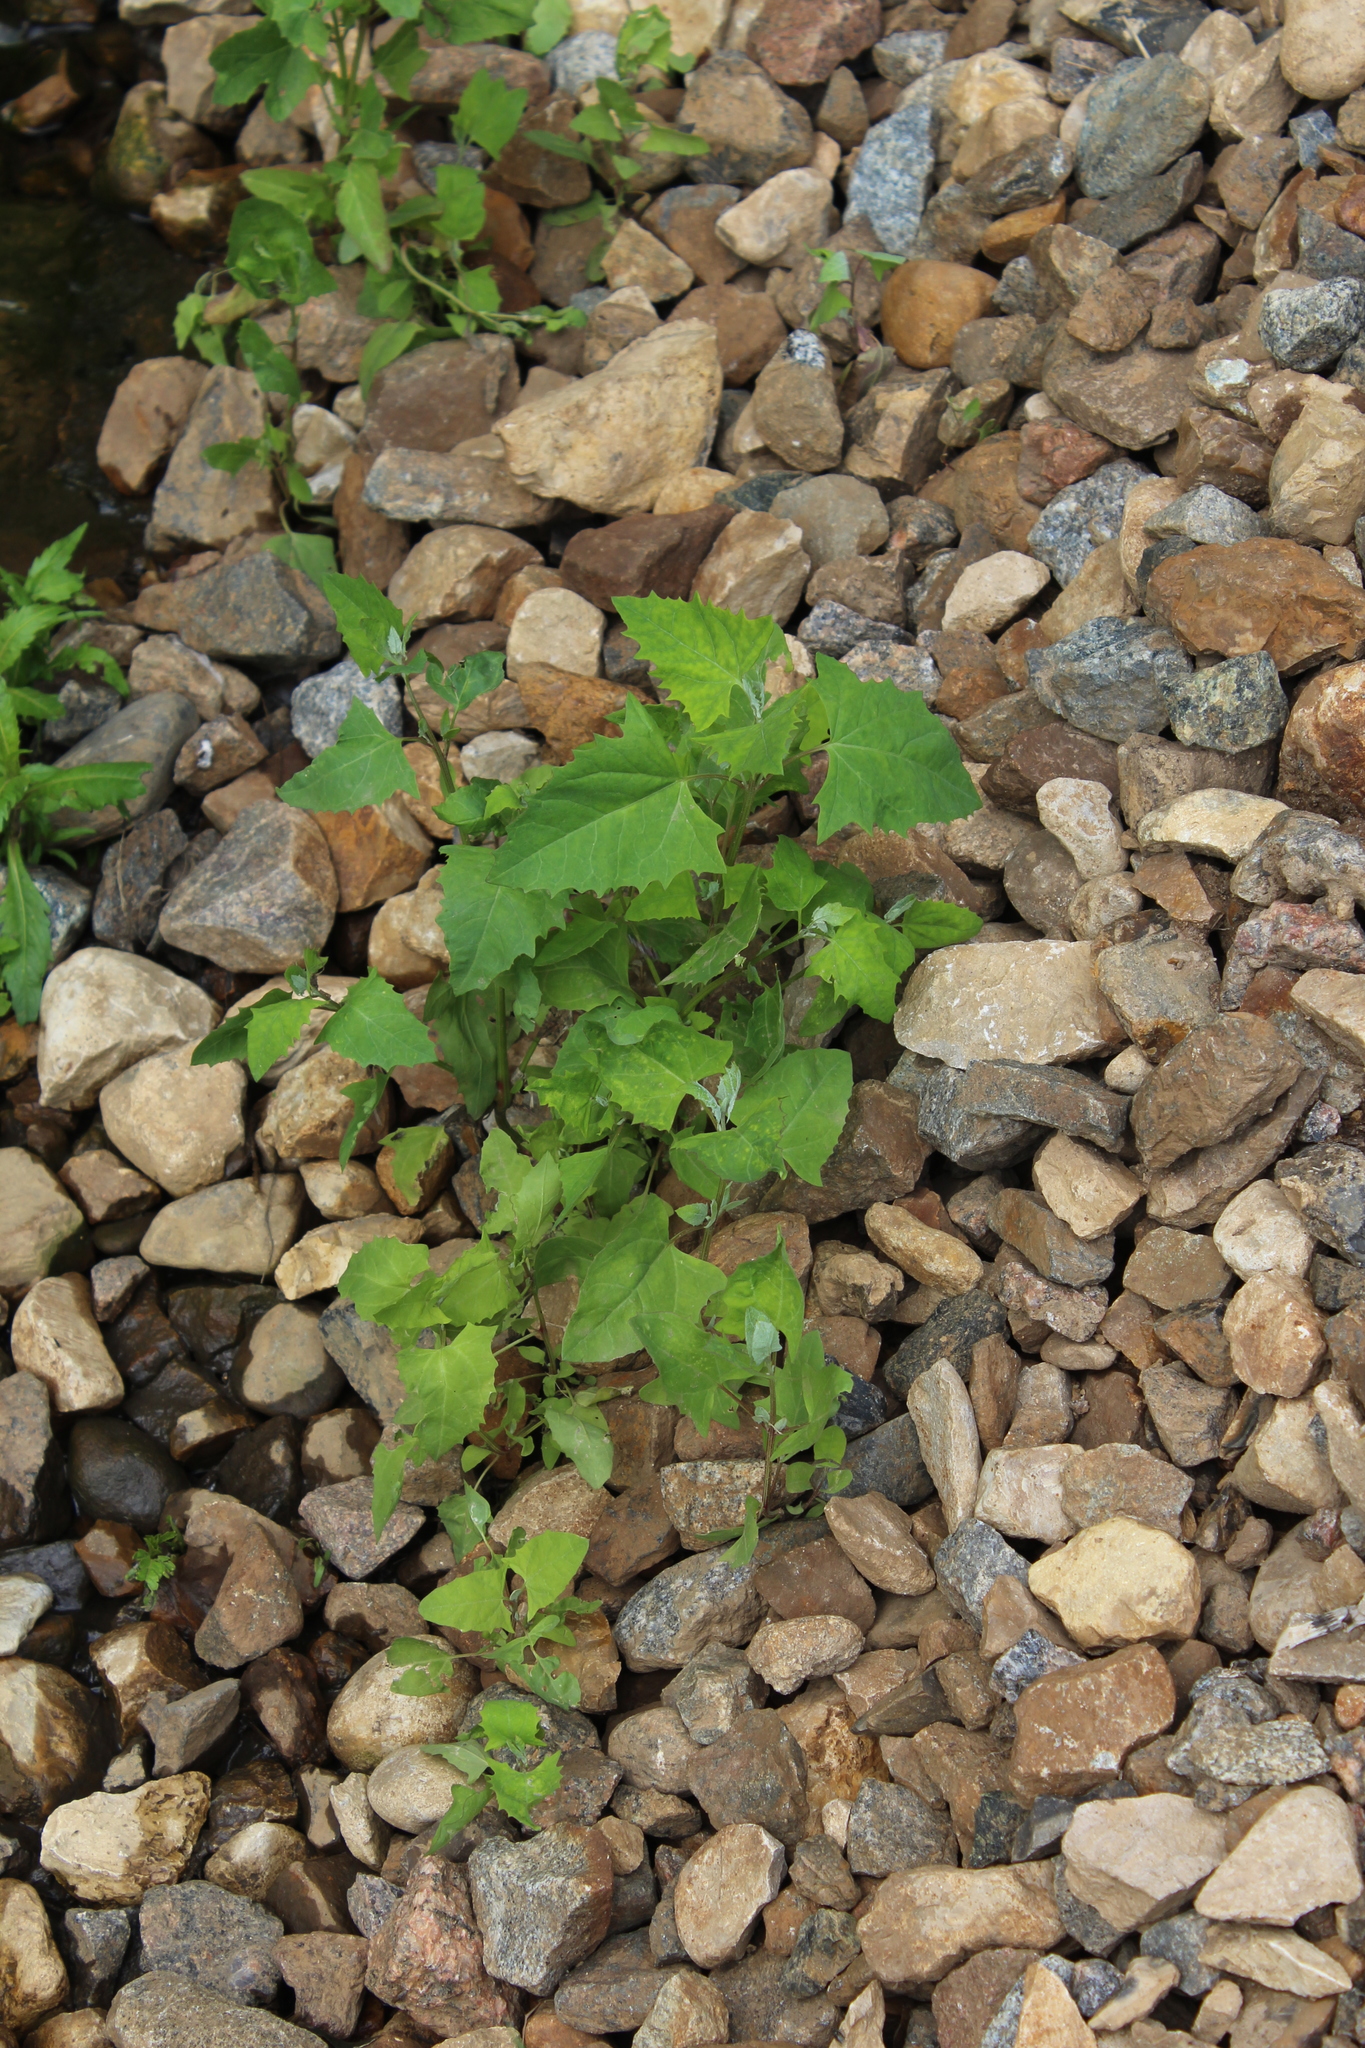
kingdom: Plantae
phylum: Tracheophyta
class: Magnoliopsida
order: Caryophyllales
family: Amaranthaceae
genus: Atriplex
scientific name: Atriplex prostrata
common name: Spear-leaved orache
